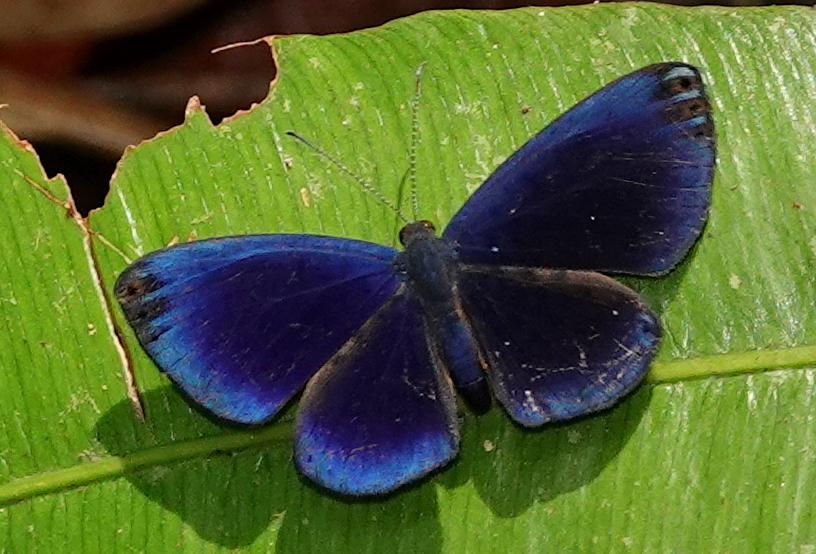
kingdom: Animalia
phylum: Arthropoda
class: Insecta
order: Lepidoptera
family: Riodinidae
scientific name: Riodinidae
